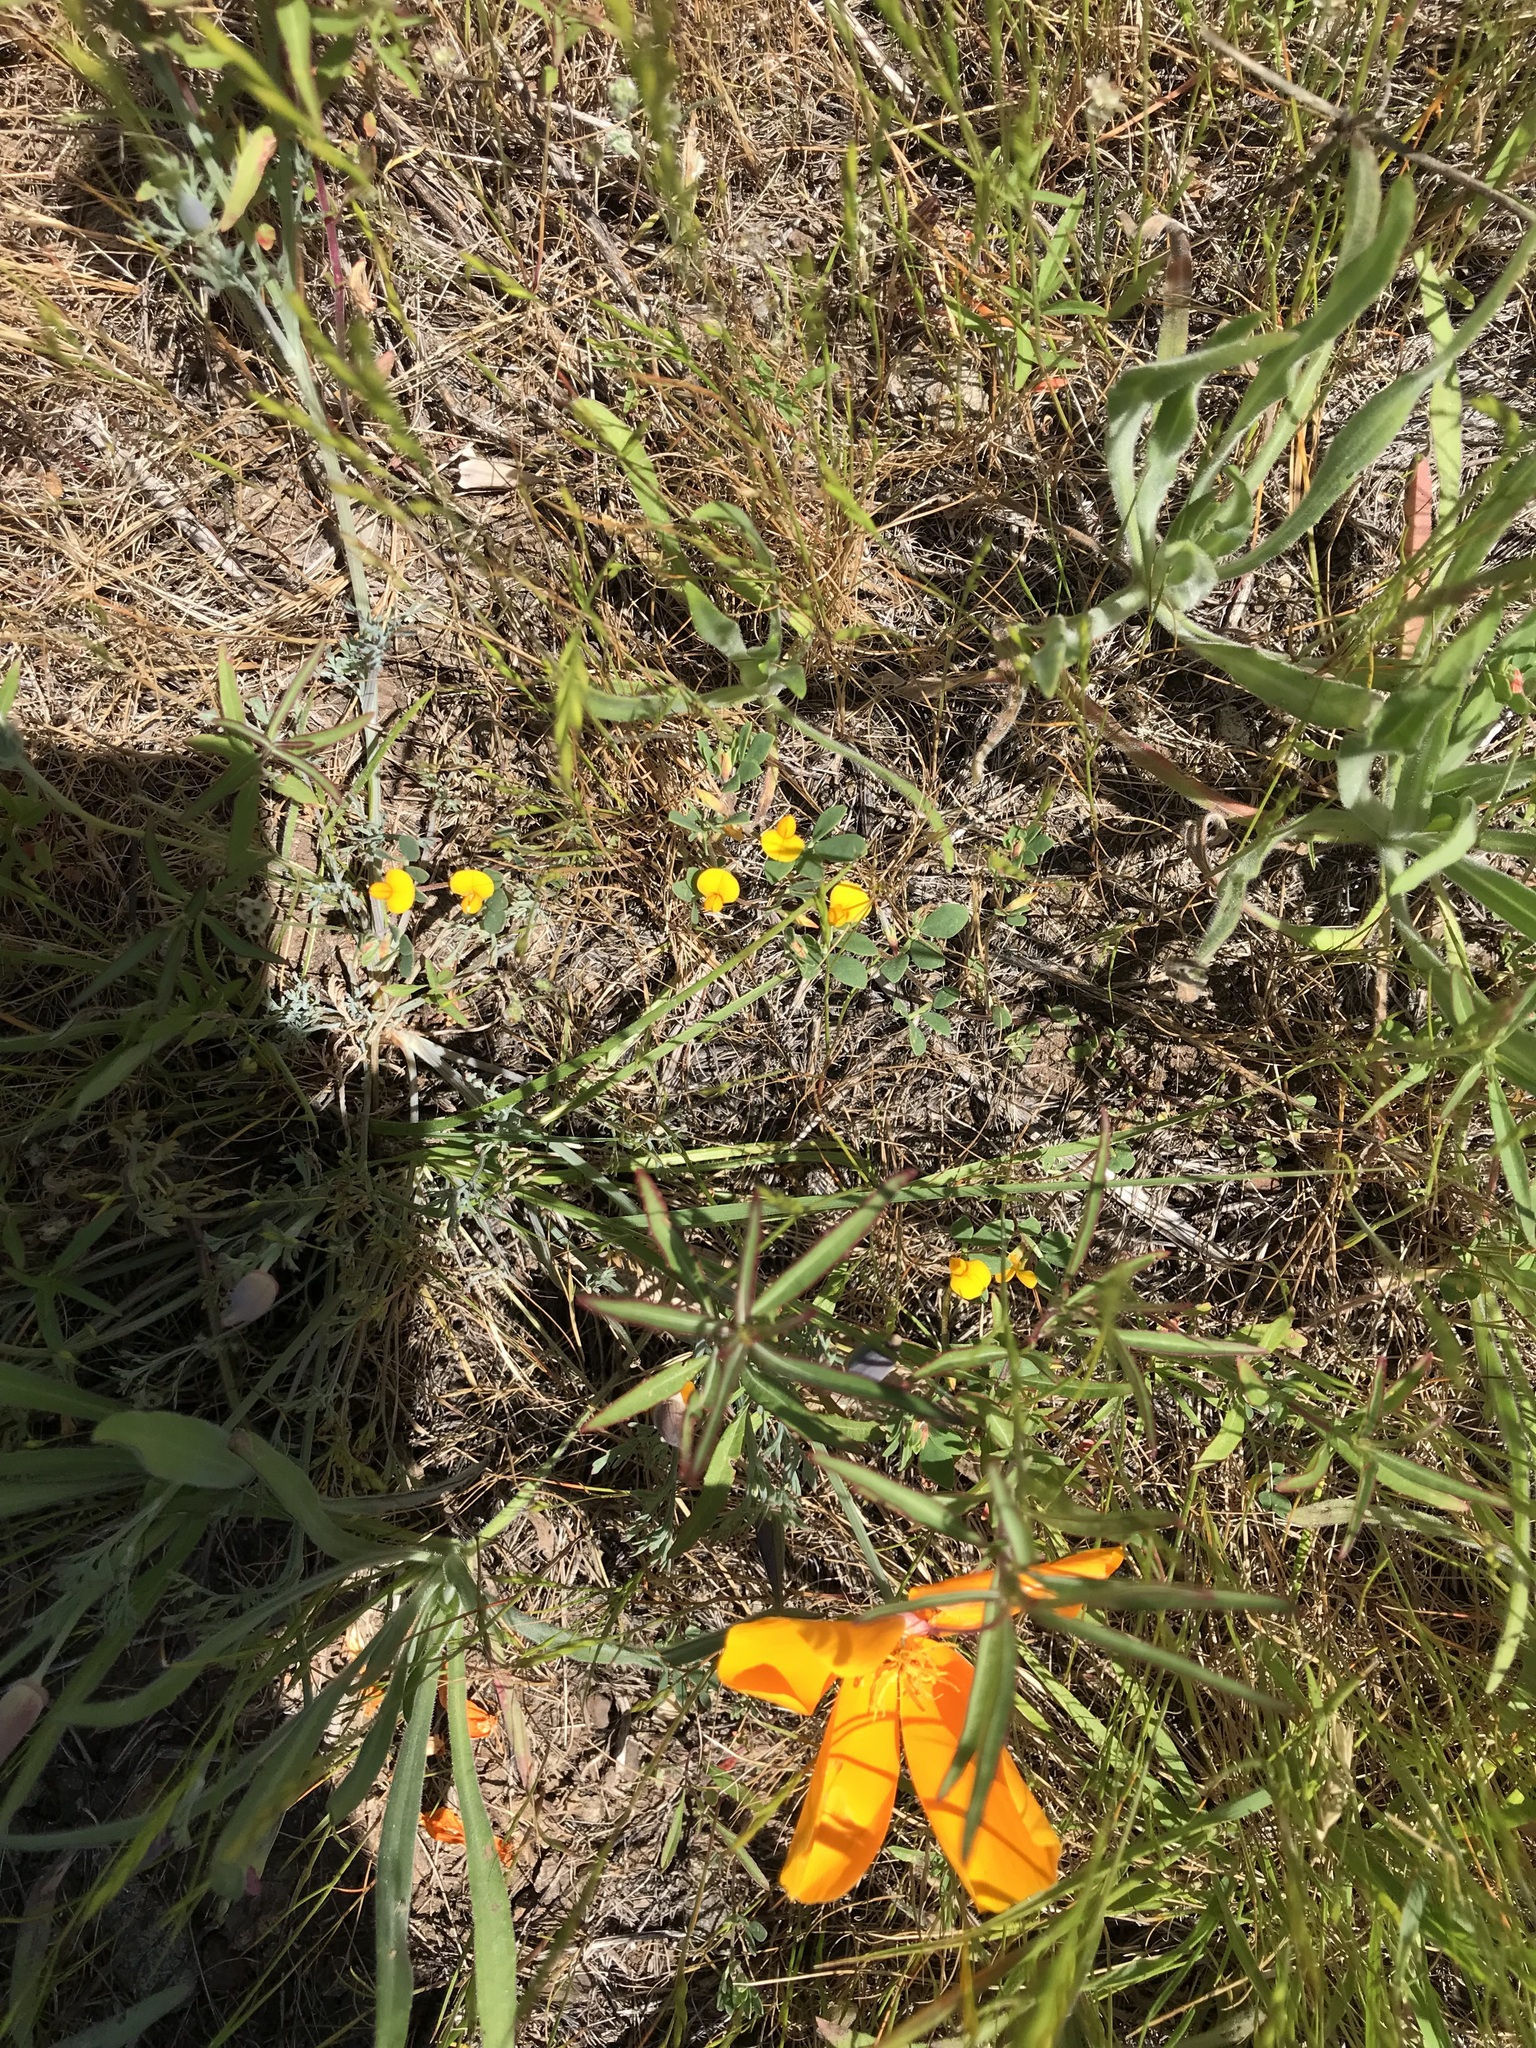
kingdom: Plantae
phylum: Tracheophyta
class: Magnoliopsida
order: Ranunculales
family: Papaveraceae
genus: Eschscholzia
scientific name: Eschscholzia californica
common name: California poppy
